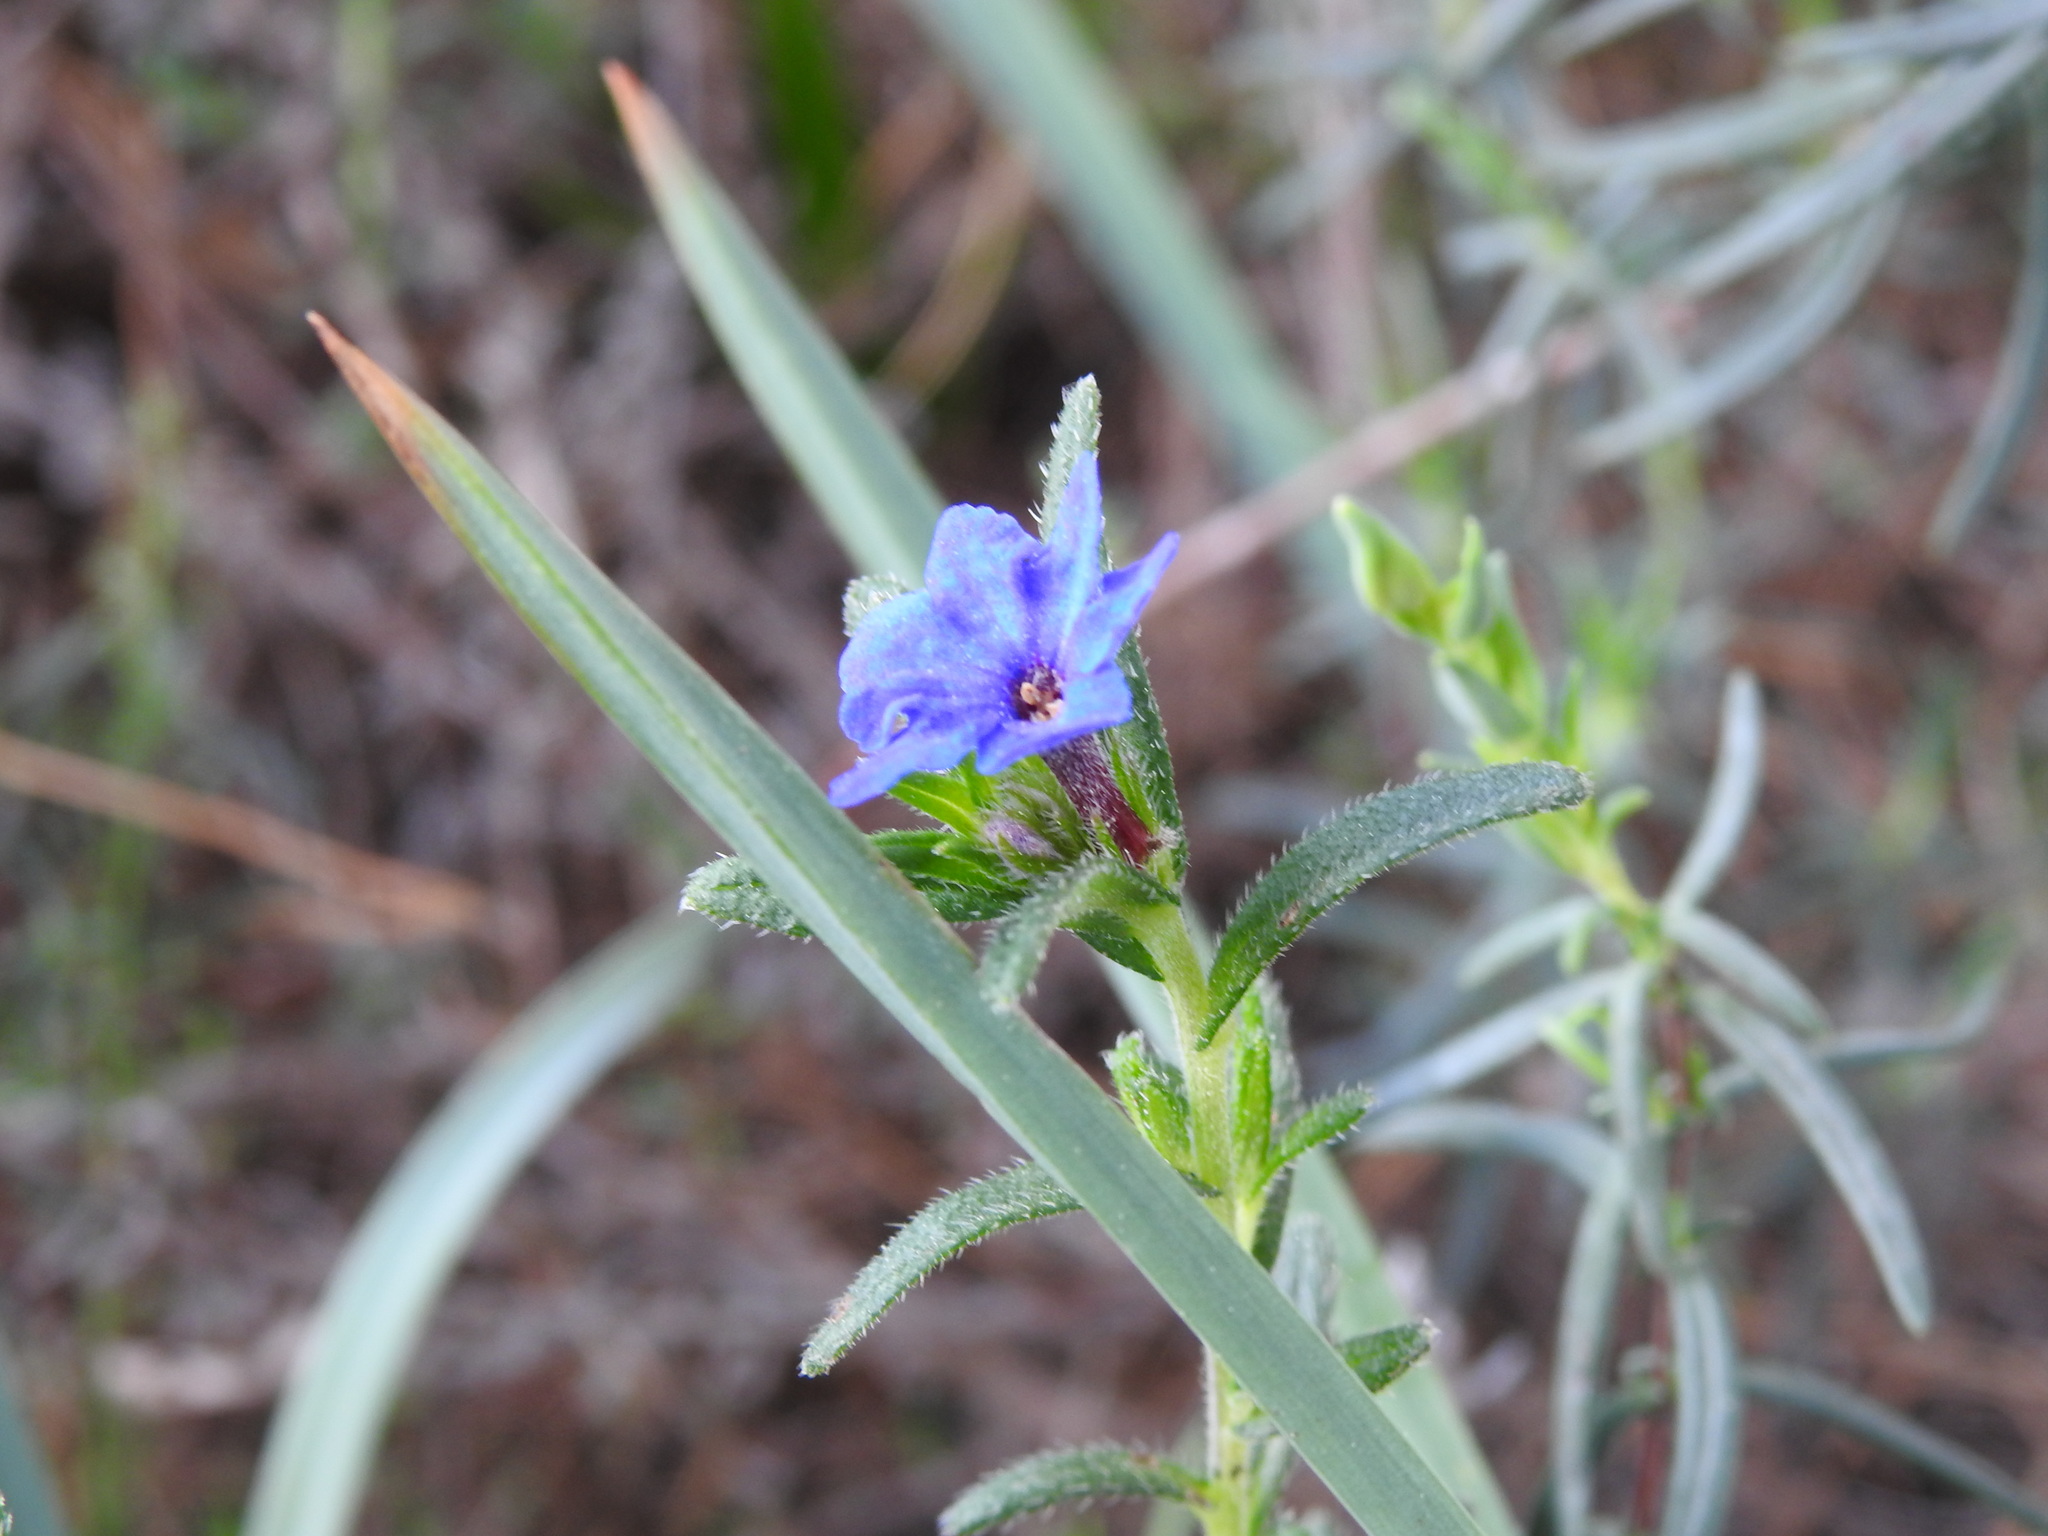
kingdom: Plantae
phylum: Tracheophyta
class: Magnoliopsida
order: Boraginales
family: Boraginaceae
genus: Glandora
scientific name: Glandora prostrata
